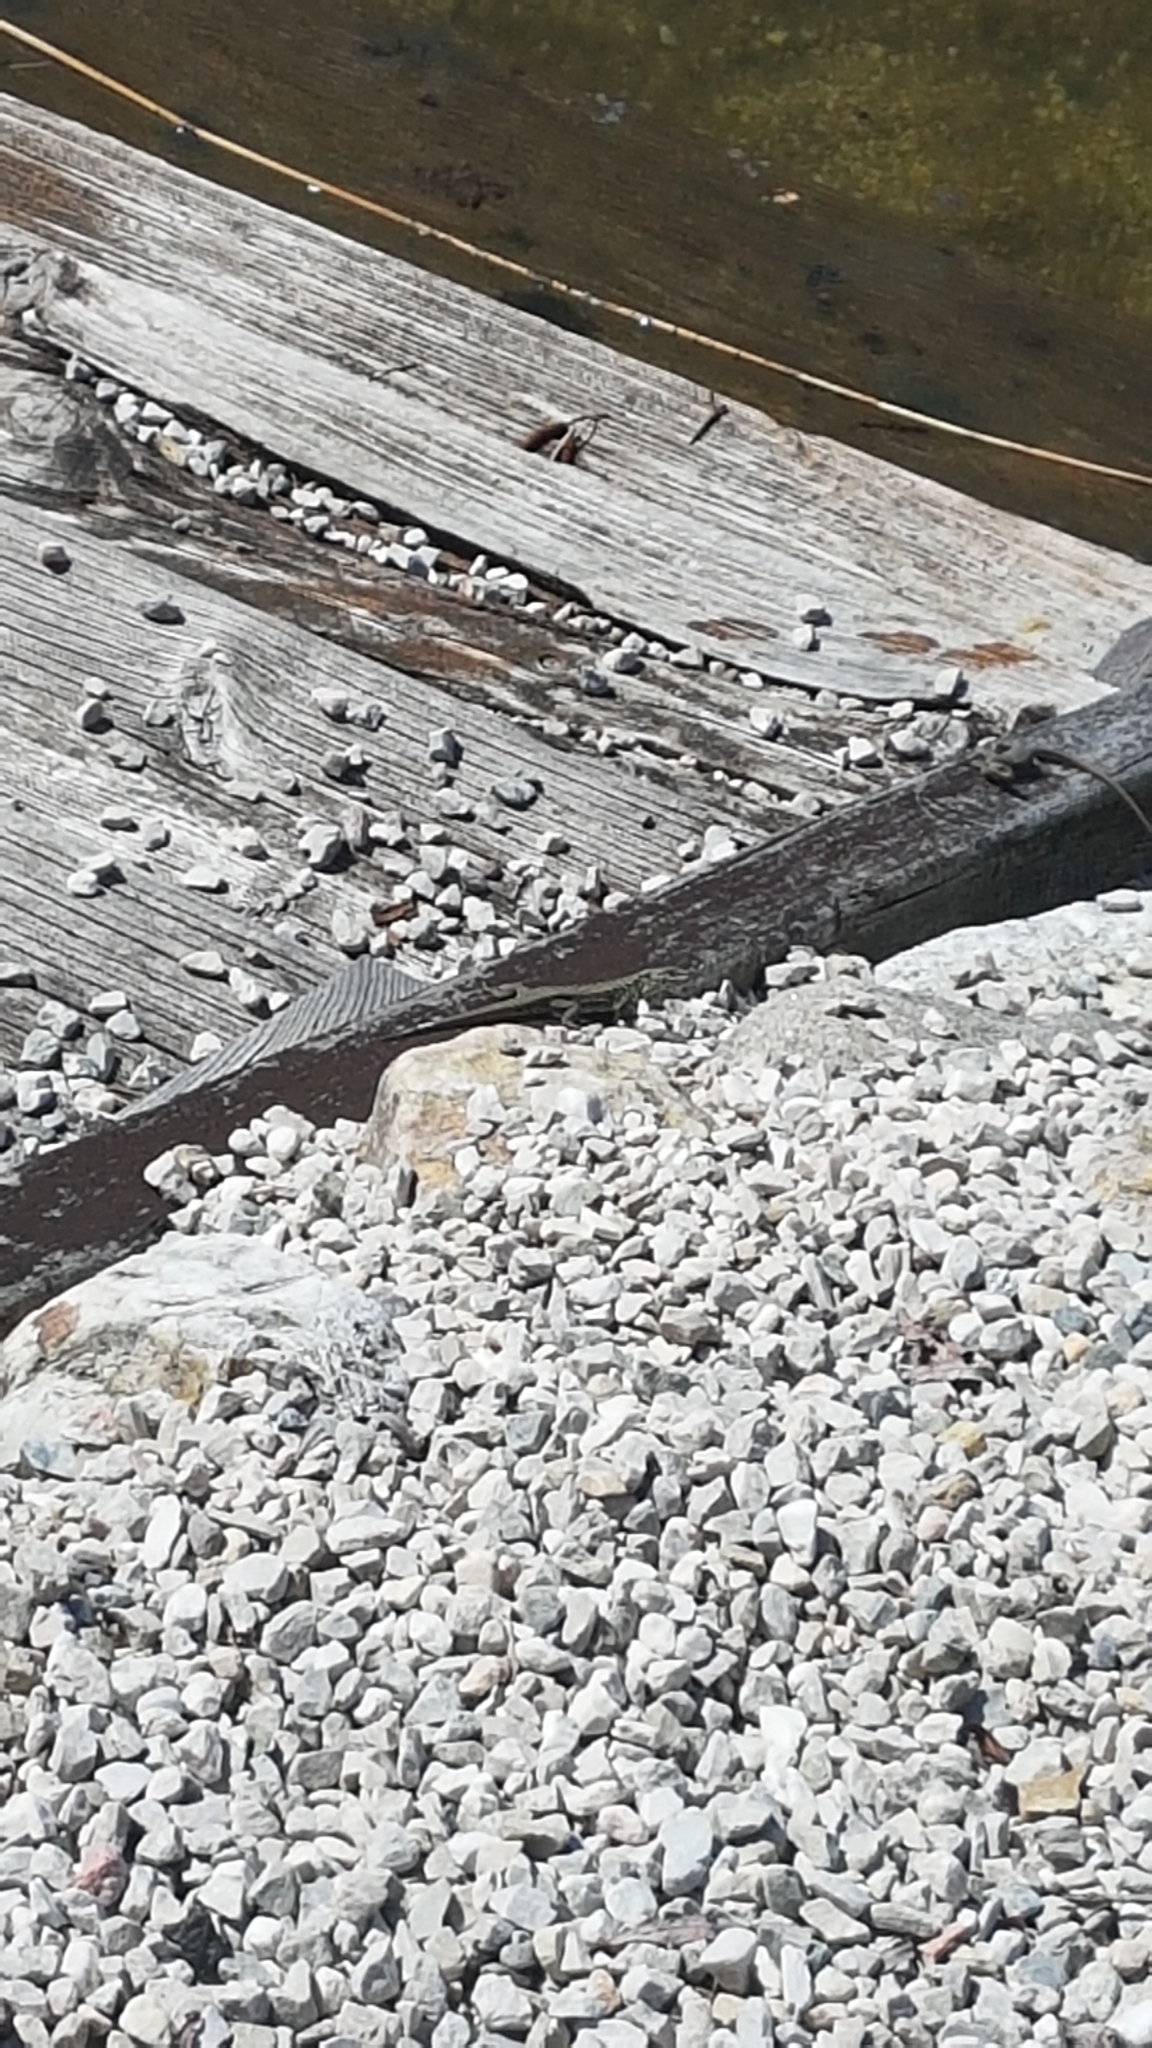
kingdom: Animalia
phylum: Chordata
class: Squamata
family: Lacertidae
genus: Podarcis
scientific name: Podarcis muralis
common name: Common wall lizard
